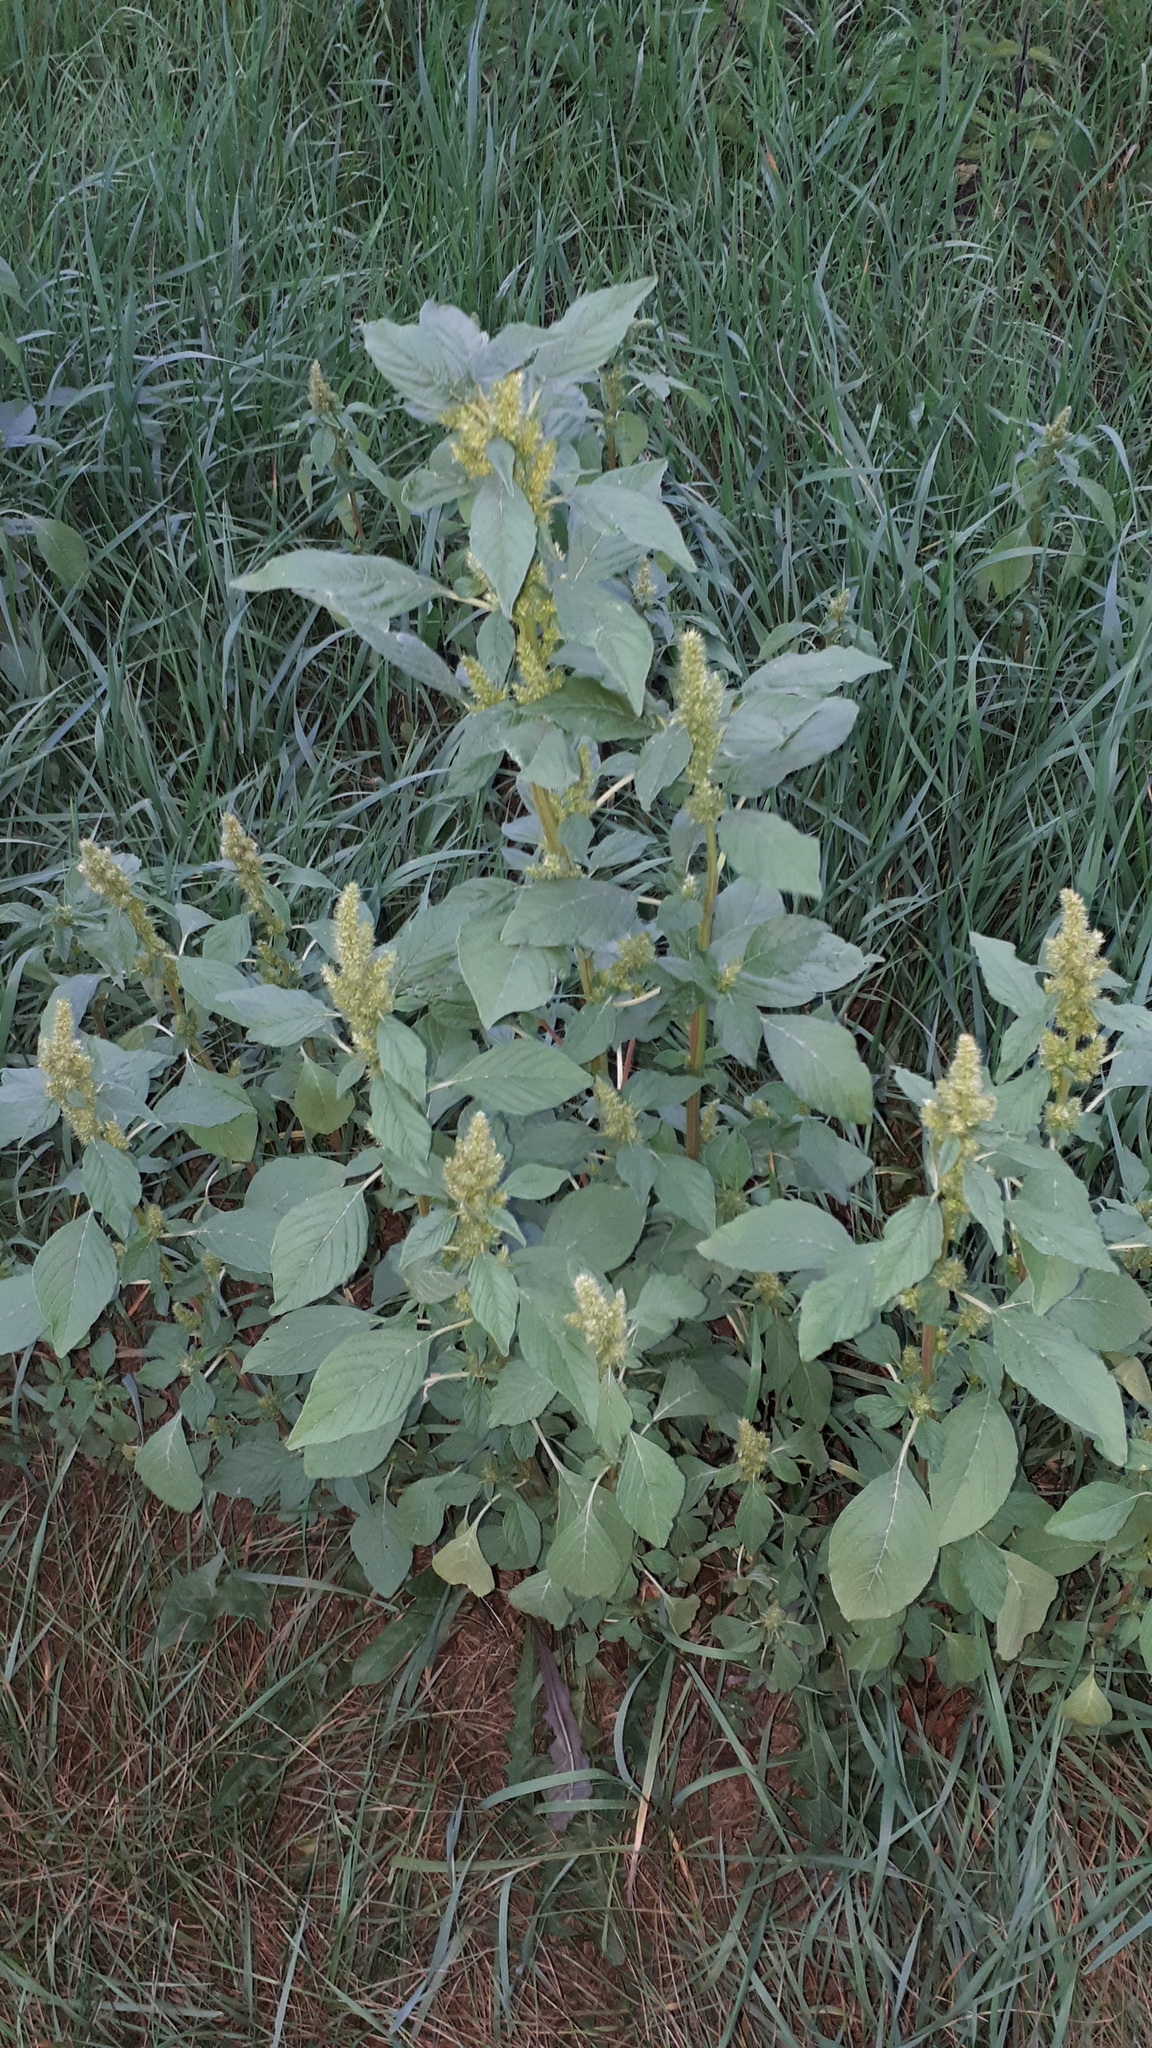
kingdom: Plantae
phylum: Tracheophyta
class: Magnoliopsida
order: Caryophyllales
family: Amaranthaceae
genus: Amaranthus
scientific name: Amaranthus hybridus
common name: Green amaranth
